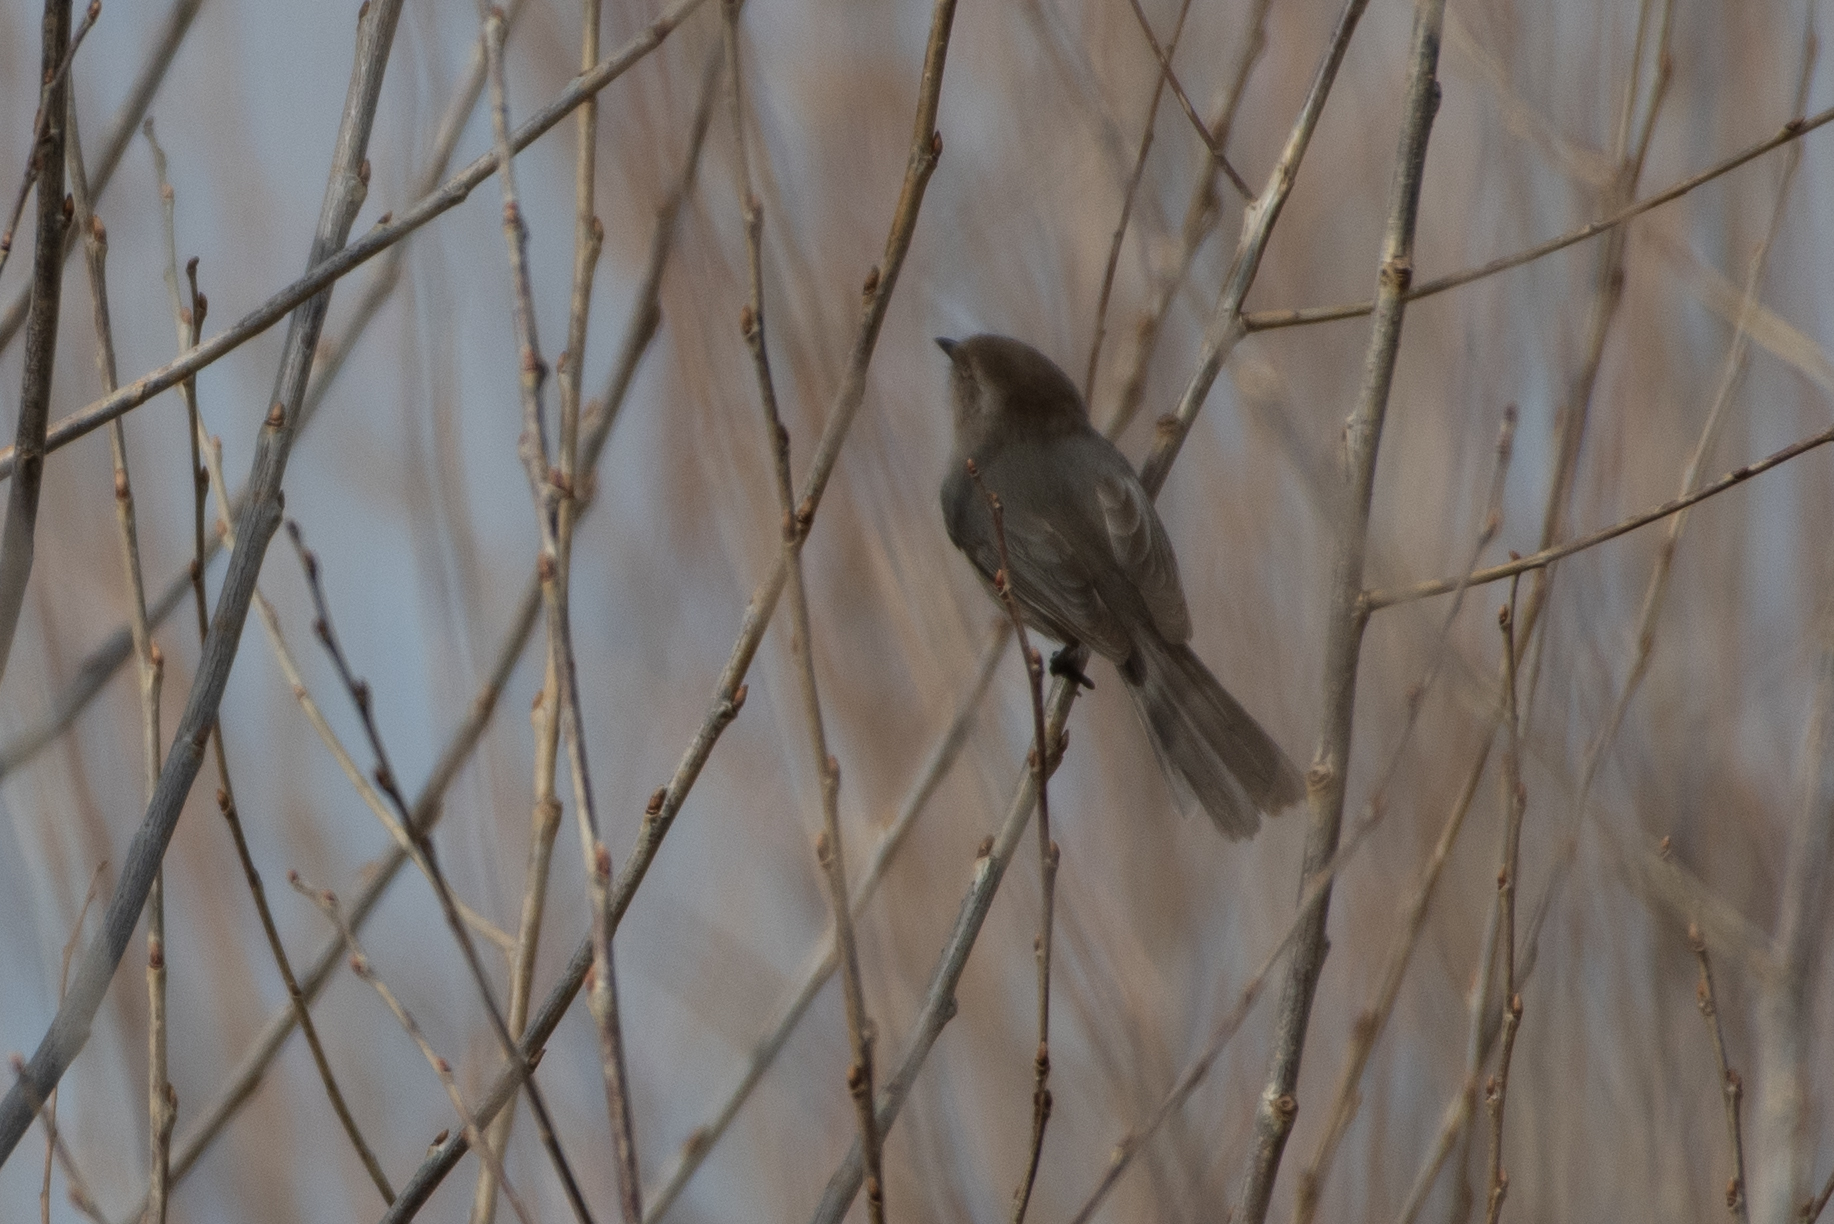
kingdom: Animalia
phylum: Chordata
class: Aves
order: Passeriformes
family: Aegithalidae
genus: Psaltriparus
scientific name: Psaltriparus minimus
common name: American bushtit
